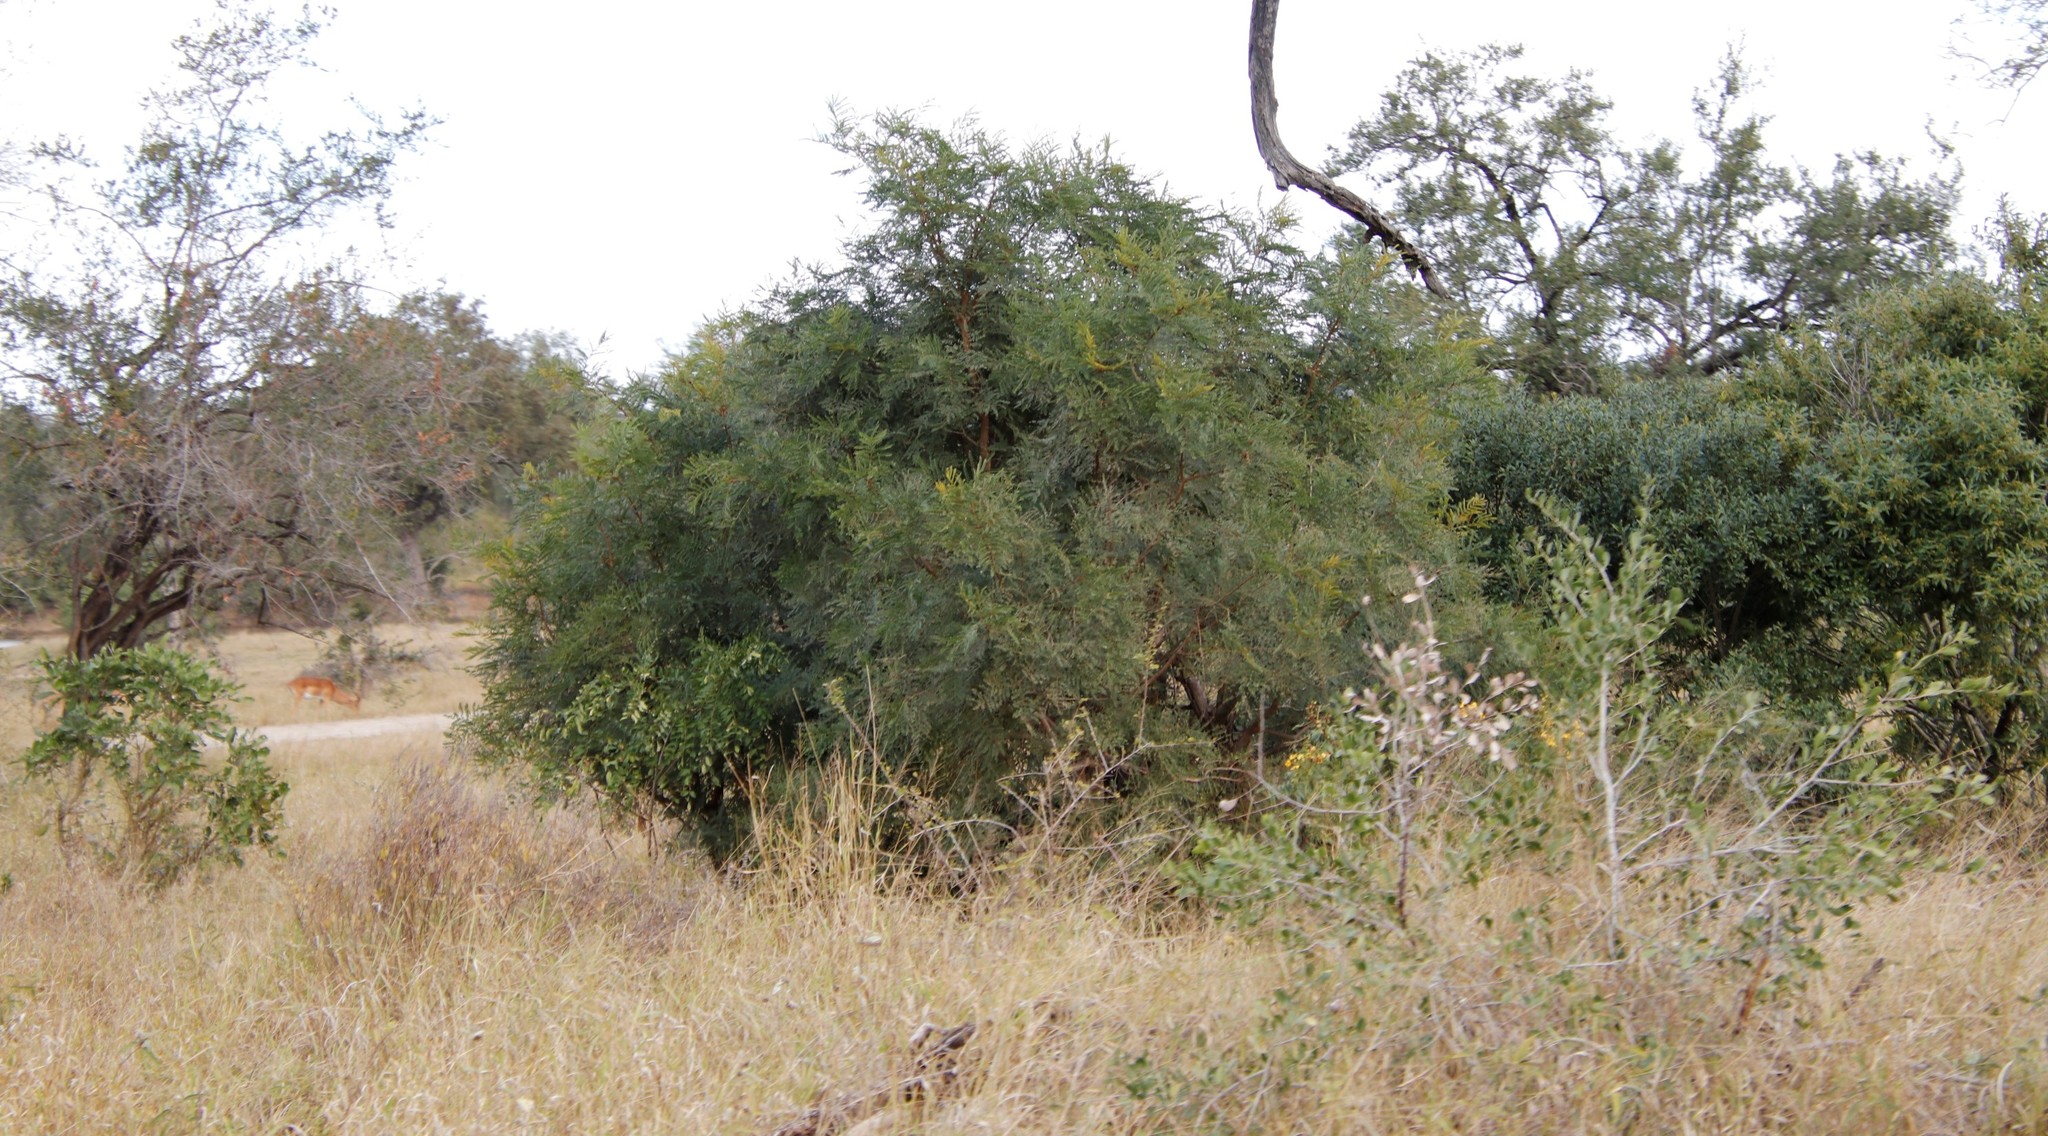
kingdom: Plantae
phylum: Tracheophyta
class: Magnoliopsida
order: Fabales
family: Fabaceae
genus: Peltophorum
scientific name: Peltophorum africanum
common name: African black wattle
